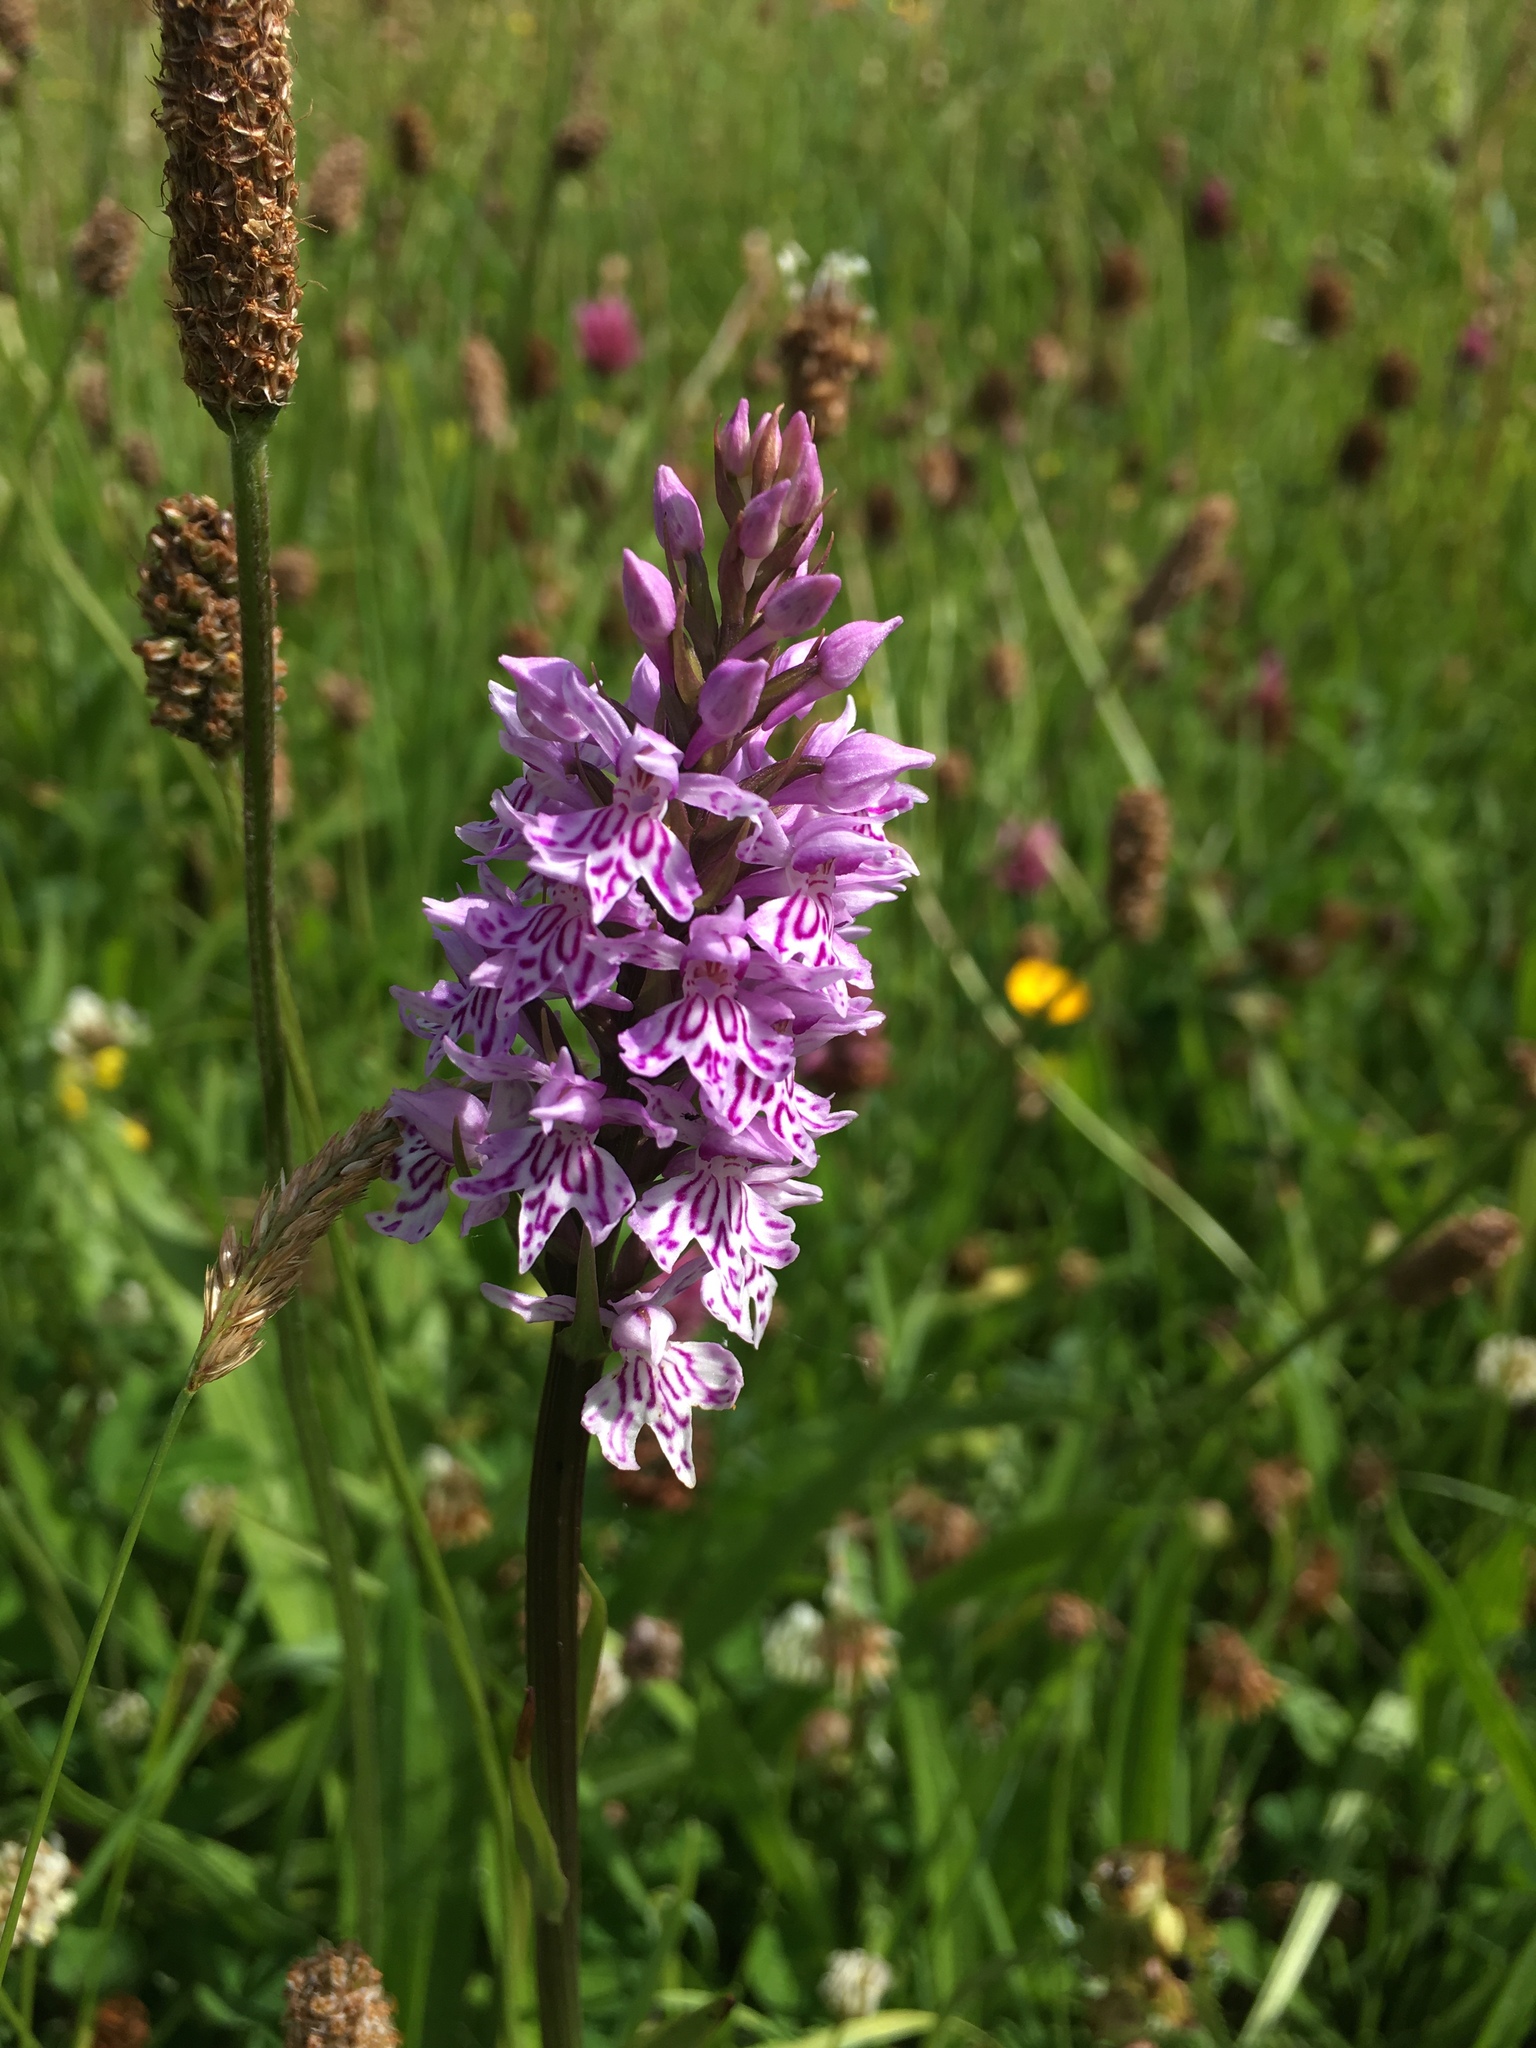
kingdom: Plantae
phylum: Tracheophyta
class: Liliopsida
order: Asparagales
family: Orchidaceae
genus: Dactylorhiza
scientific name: Dactylorhiza maculata
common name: Heath spotted-orchid
